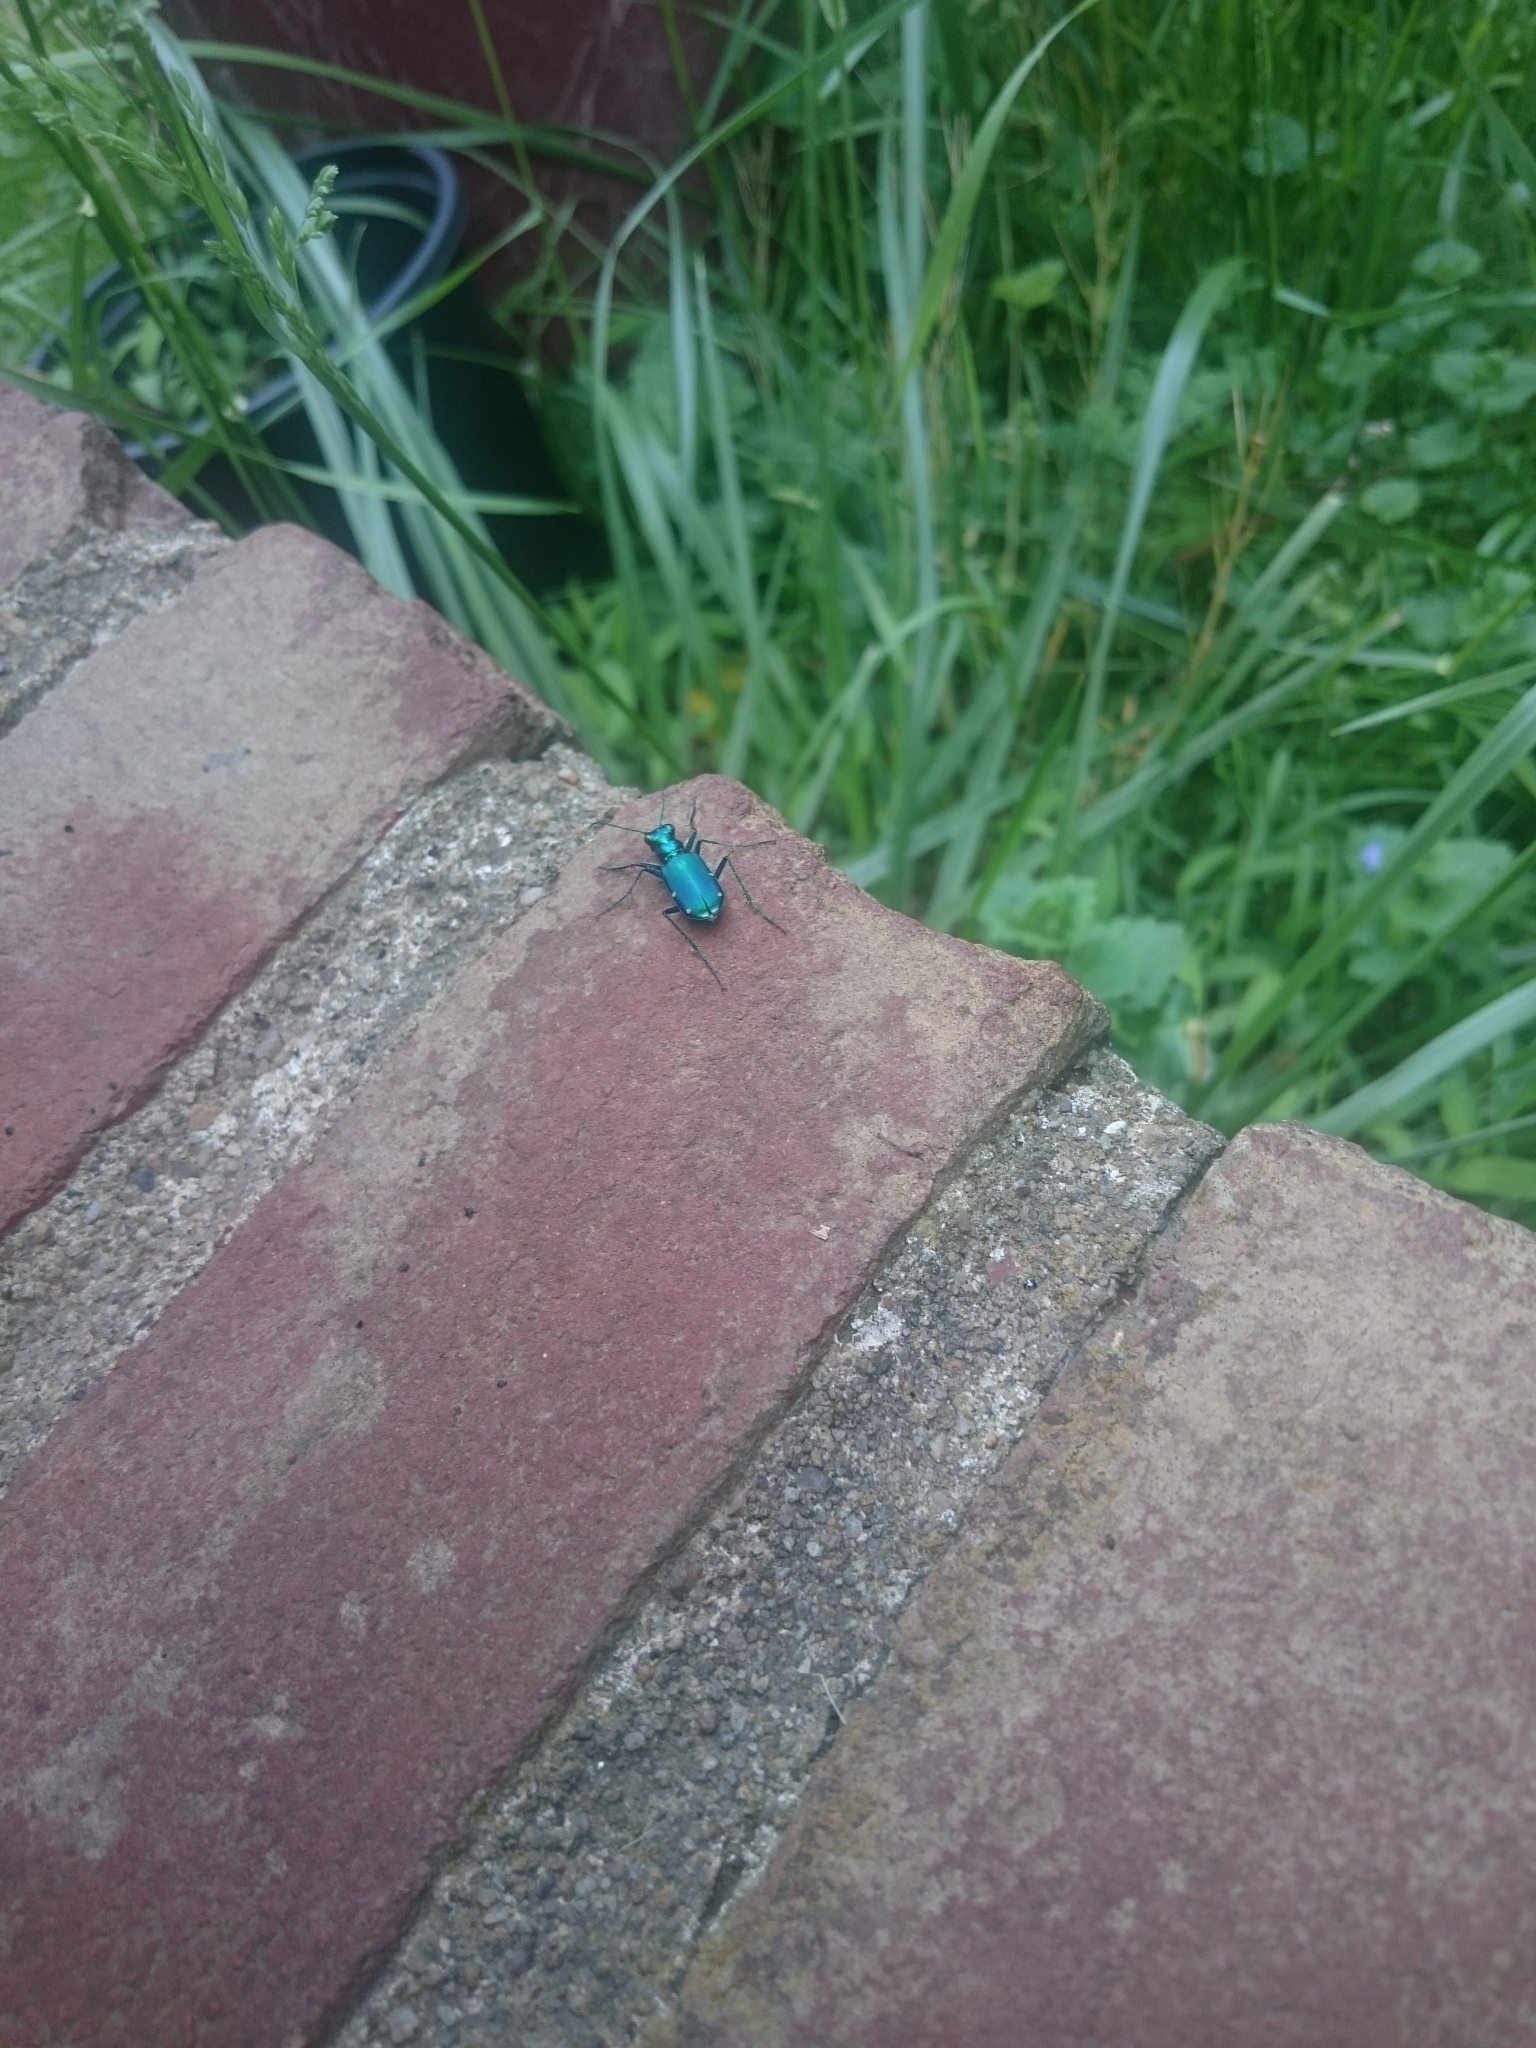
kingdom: Animalia
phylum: Arthropoda
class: Insecta
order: Coleoptera
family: Carabidae
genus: Cicindela
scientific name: Cicindela sexguttata
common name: Six-spotted tiger beetle
